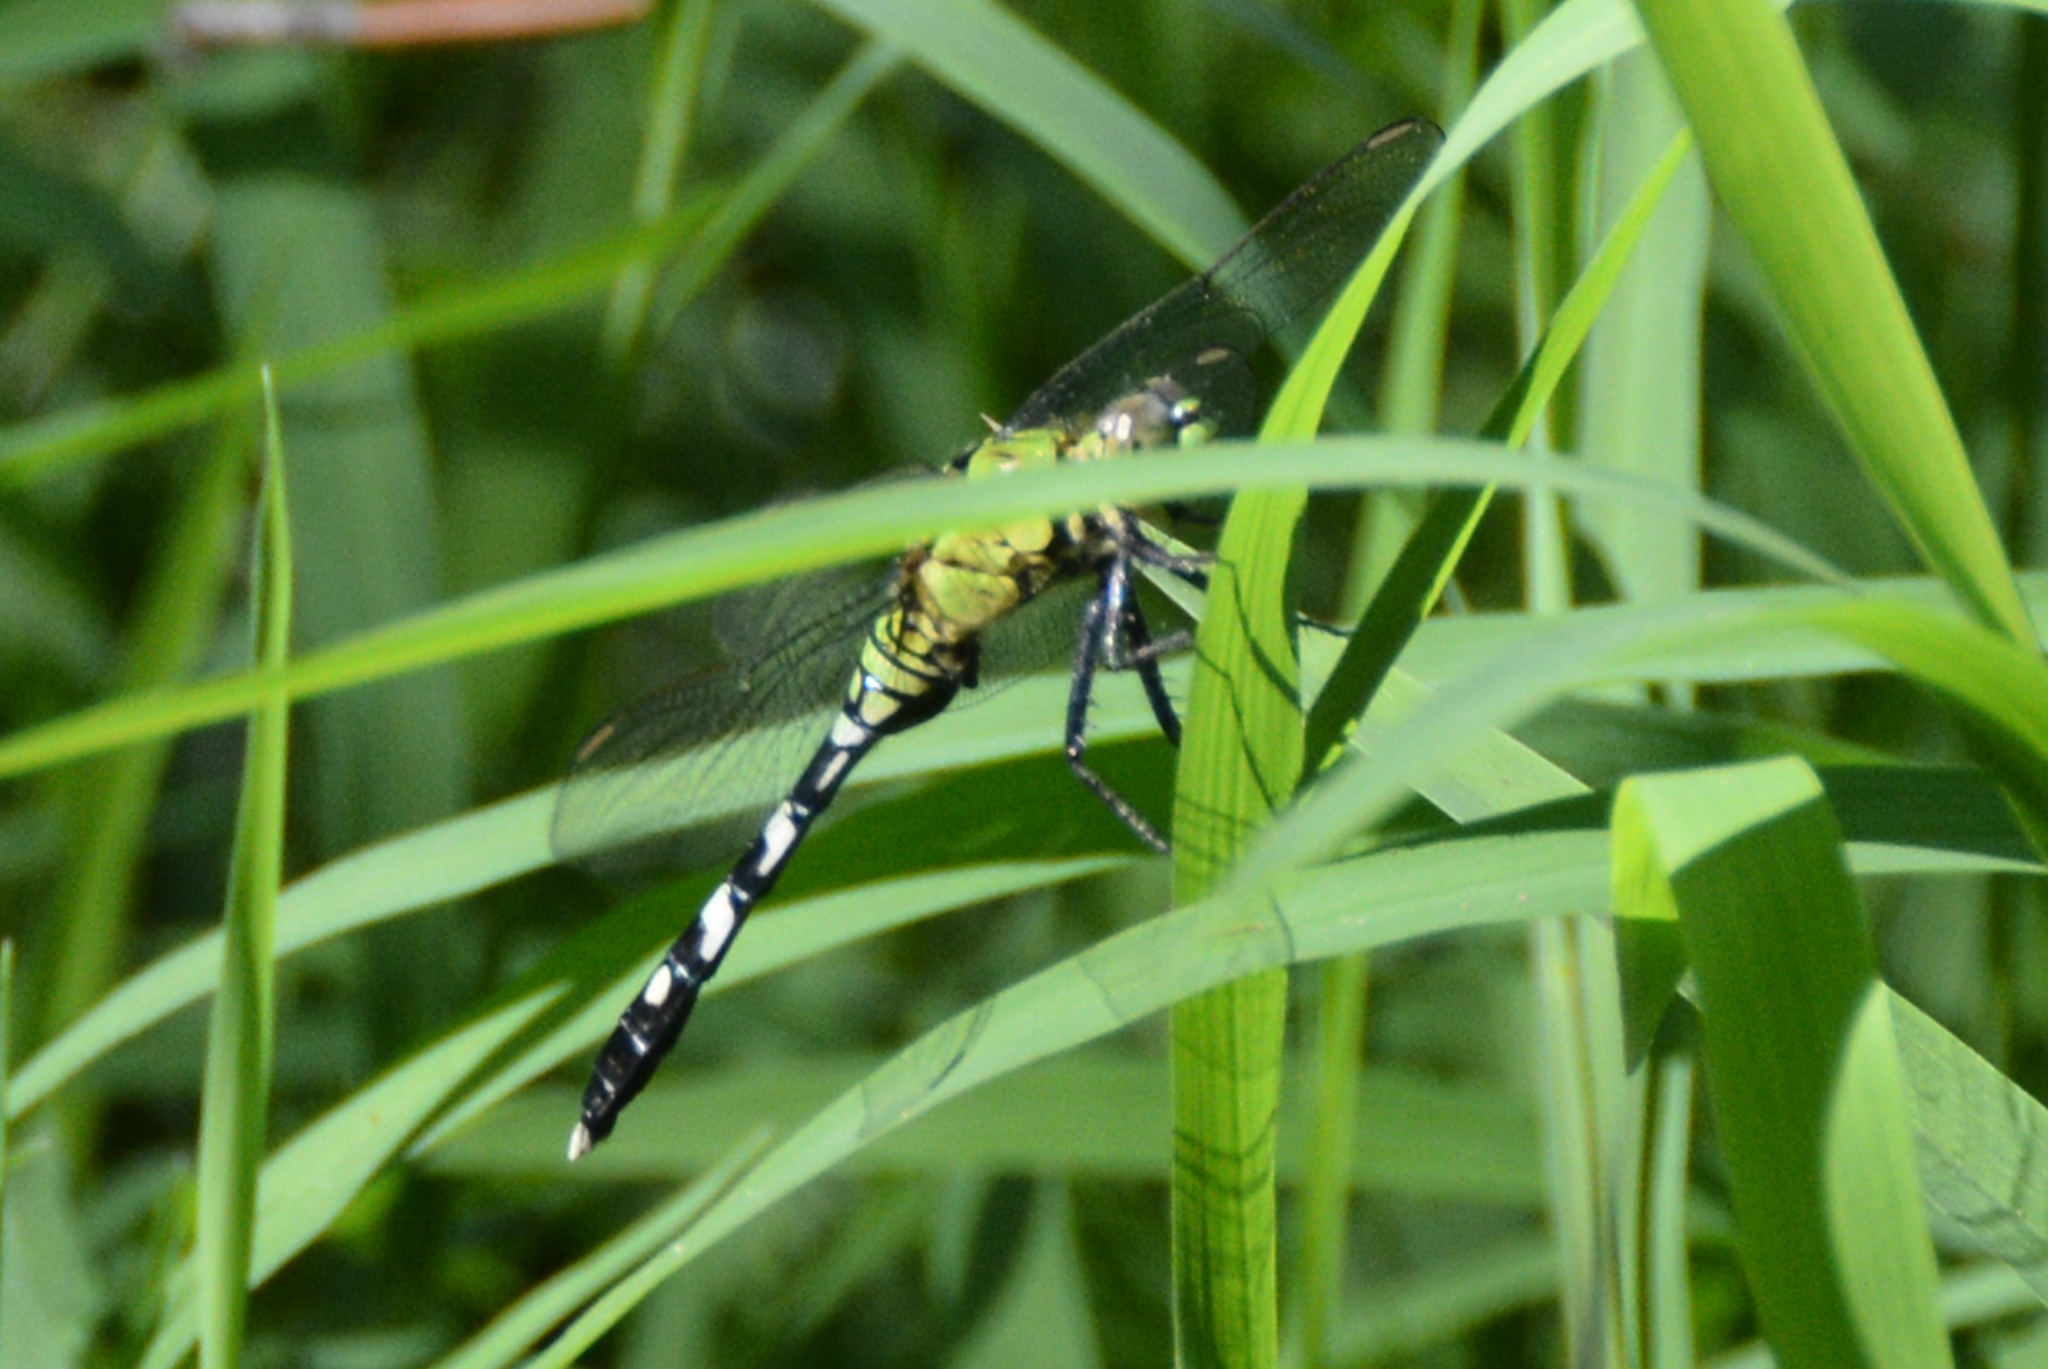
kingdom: Animalia
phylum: Arthropoda
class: Insecta
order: Odonata
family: Libellulidae
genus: Erythemis
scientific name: Erythemis simplicicollis
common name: Eastern pondhawk
